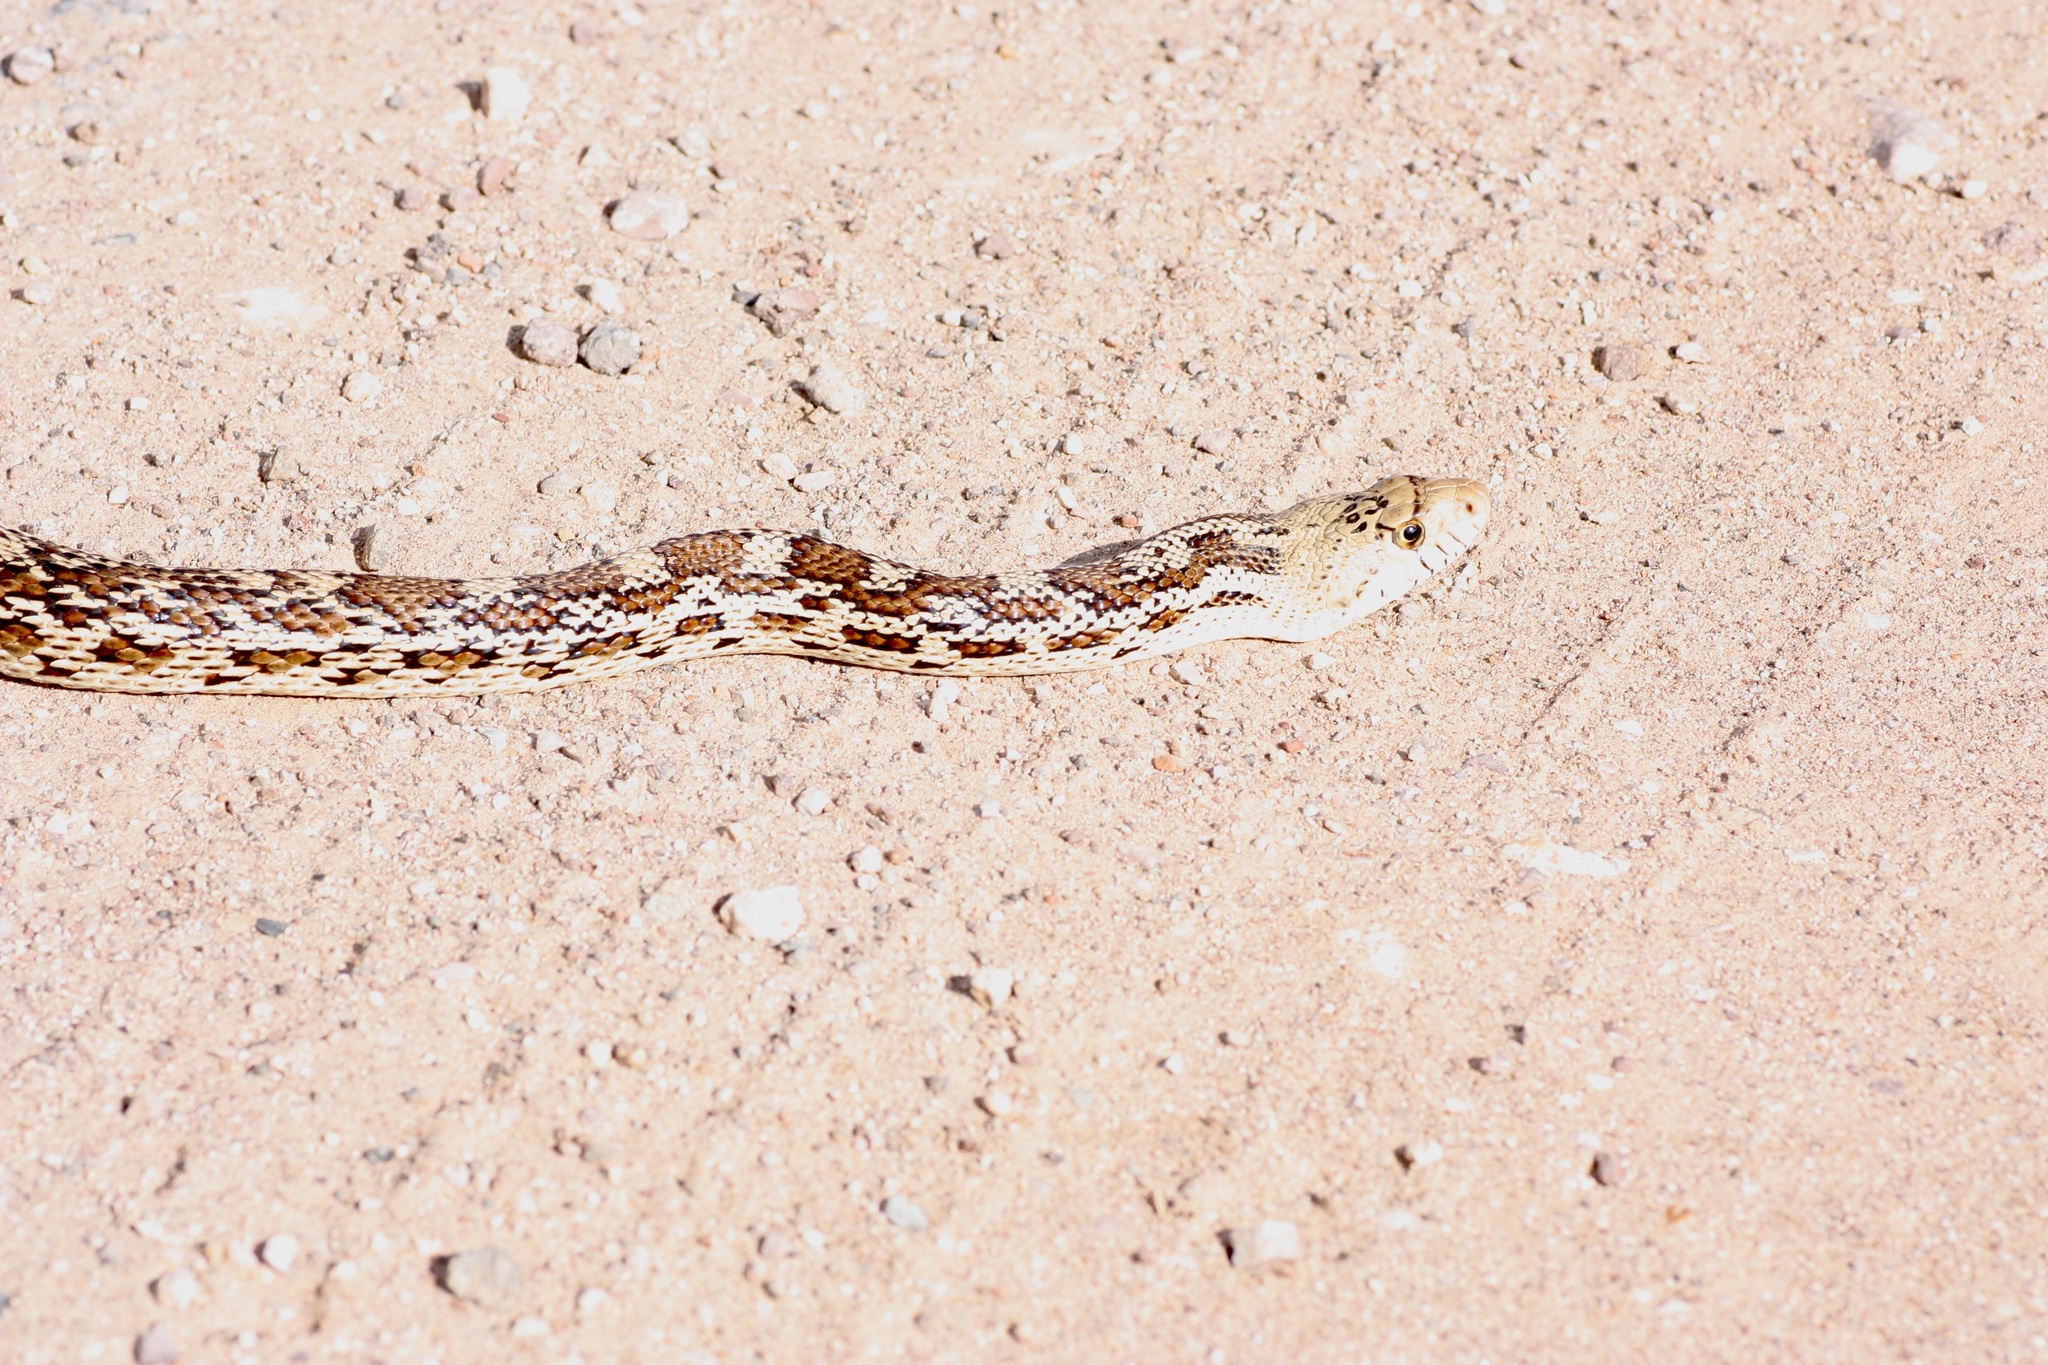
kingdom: Animalia
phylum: Chordata
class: Squamata
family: Colubridae
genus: Pituophis
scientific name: Pituophis catenifer
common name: Gopher snake
